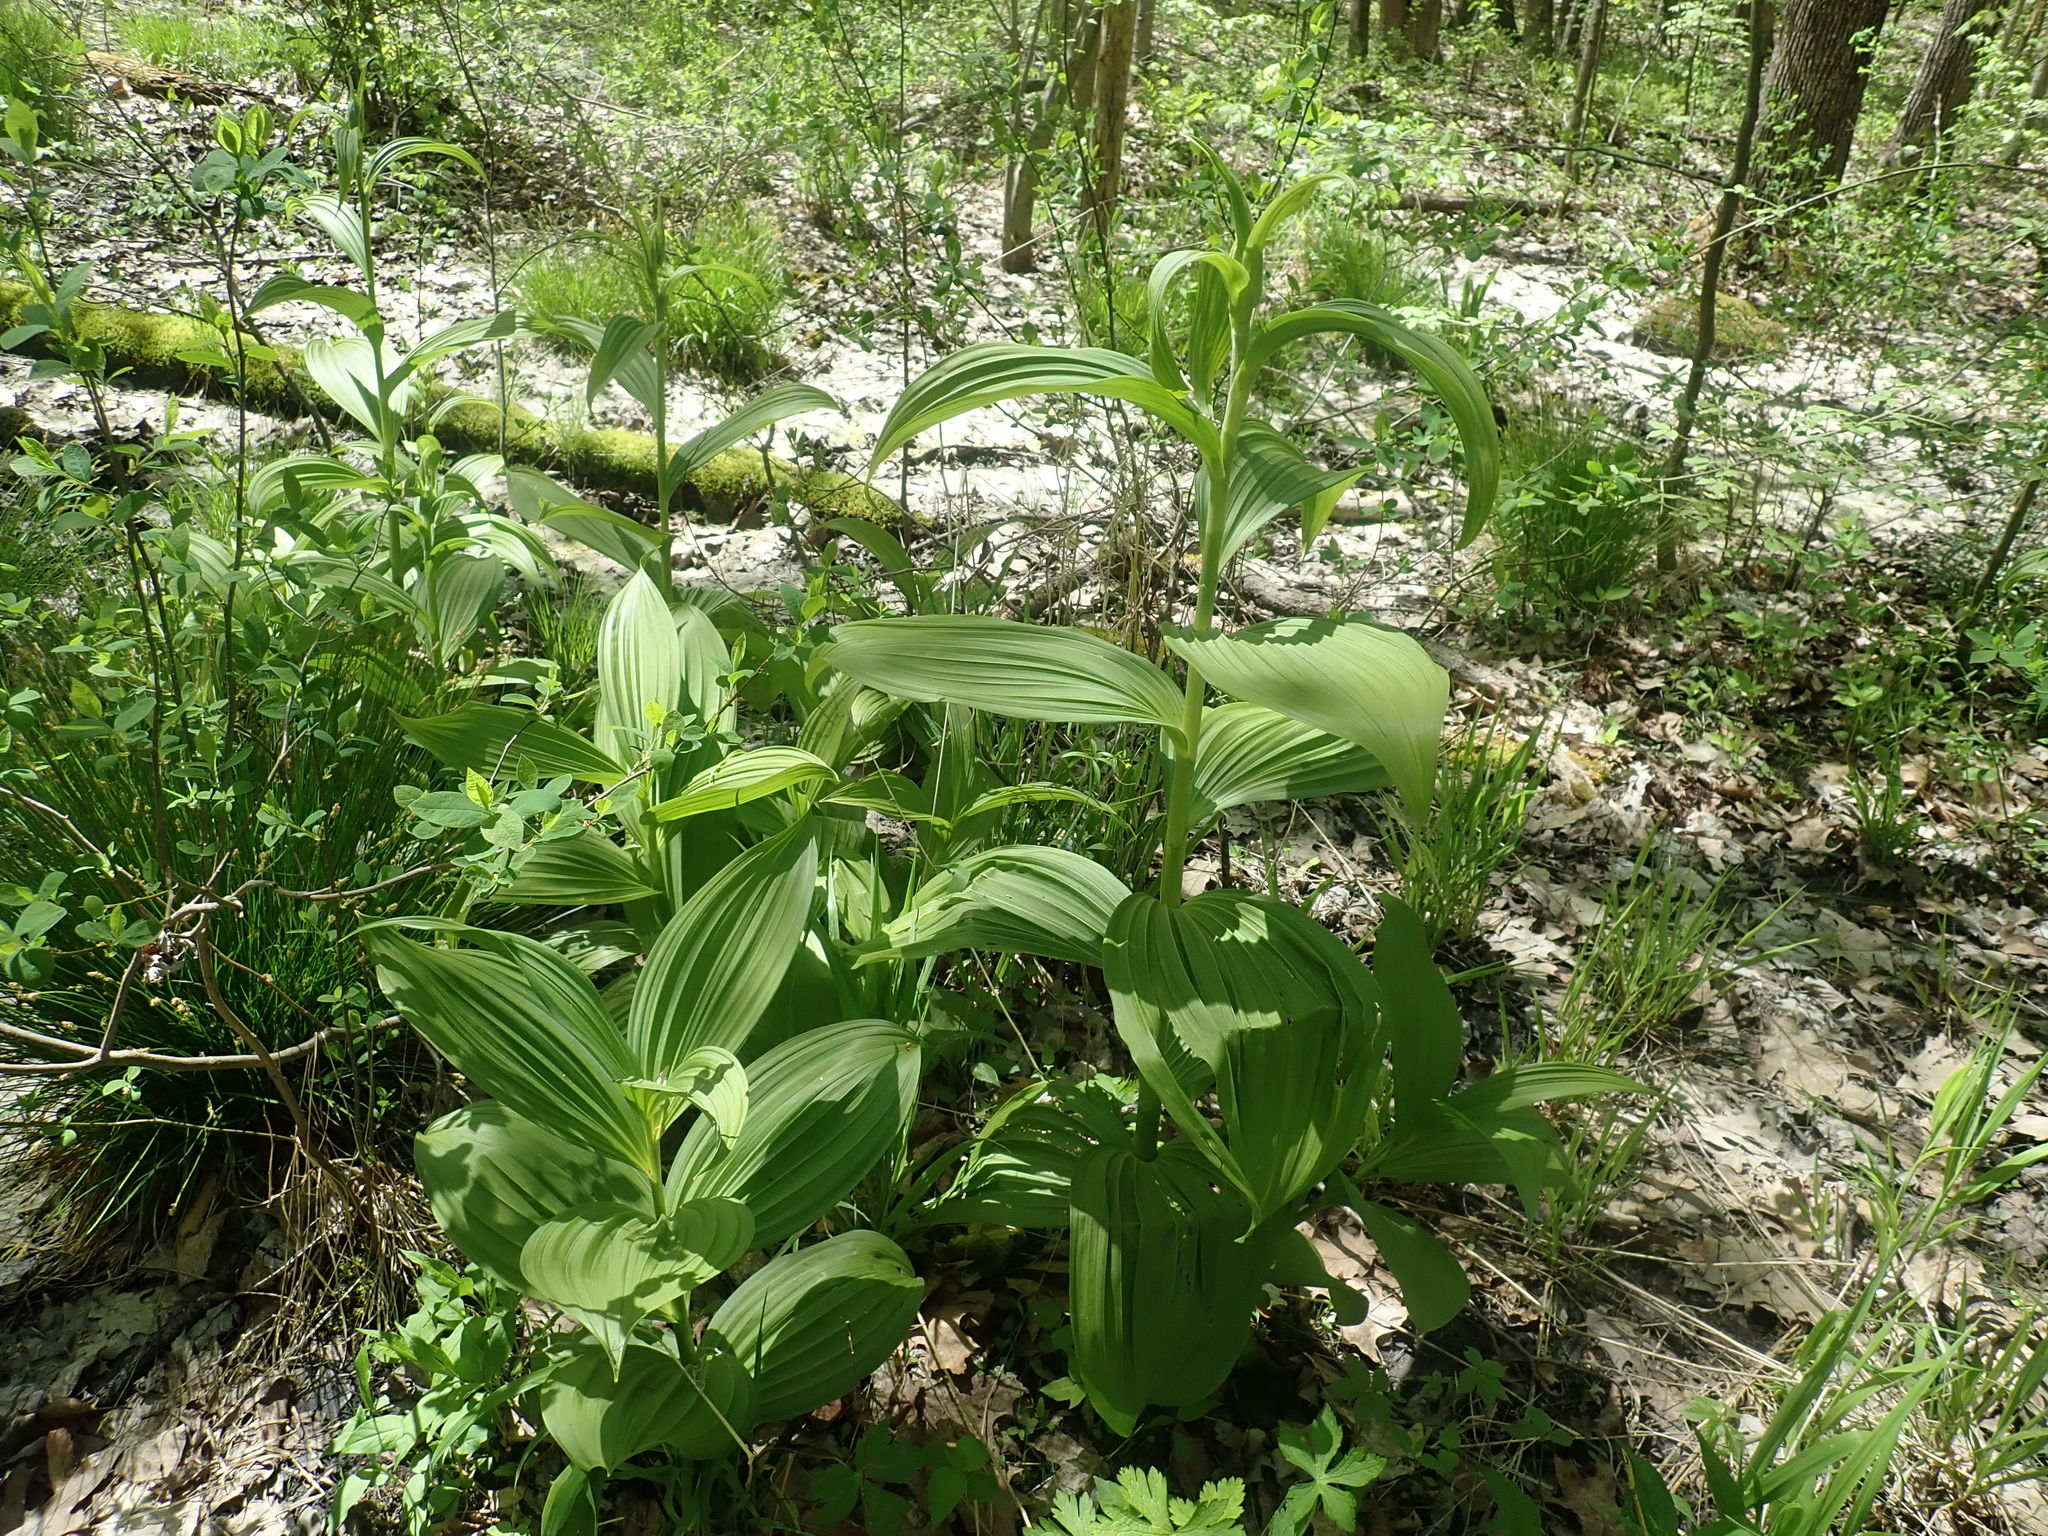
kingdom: Plantae
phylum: Tracheophyta
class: Liliopsida
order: Liliales
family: Melanthiaceae
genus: Veratrum
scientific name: Veratrum viride
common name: American false hellebore
